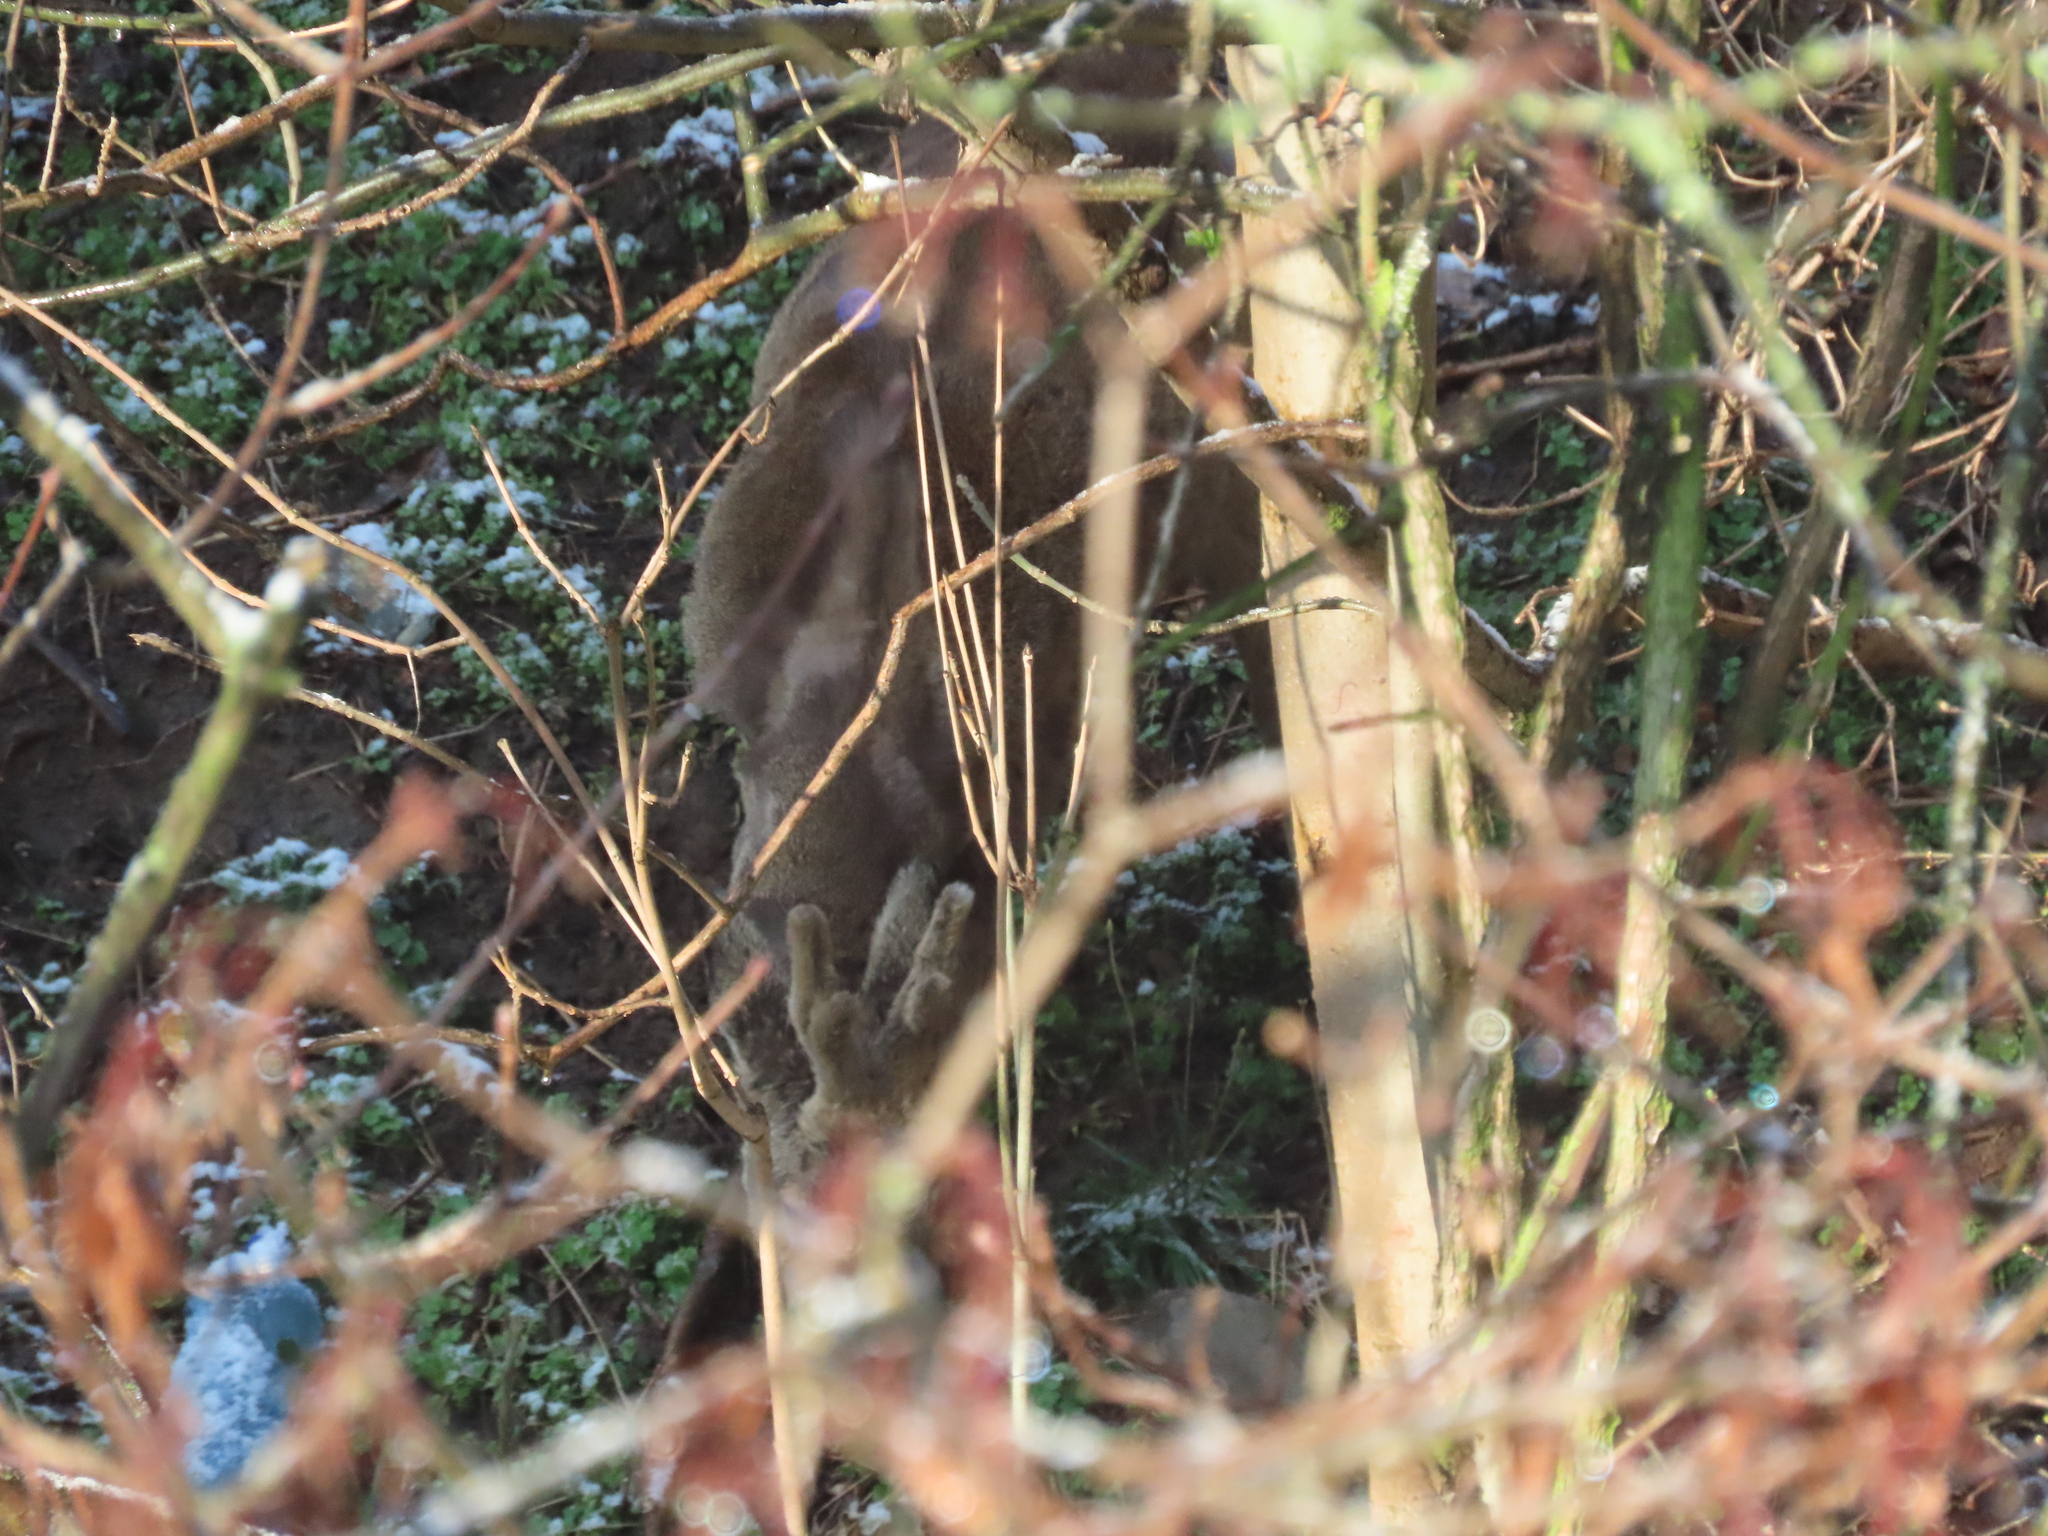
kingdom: Animalia
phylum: Chordata
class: Mammalia
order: Artiodactyla
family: Cervidae
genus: Capreolus
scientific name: Capreolus capreolus
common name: Western roe deer
